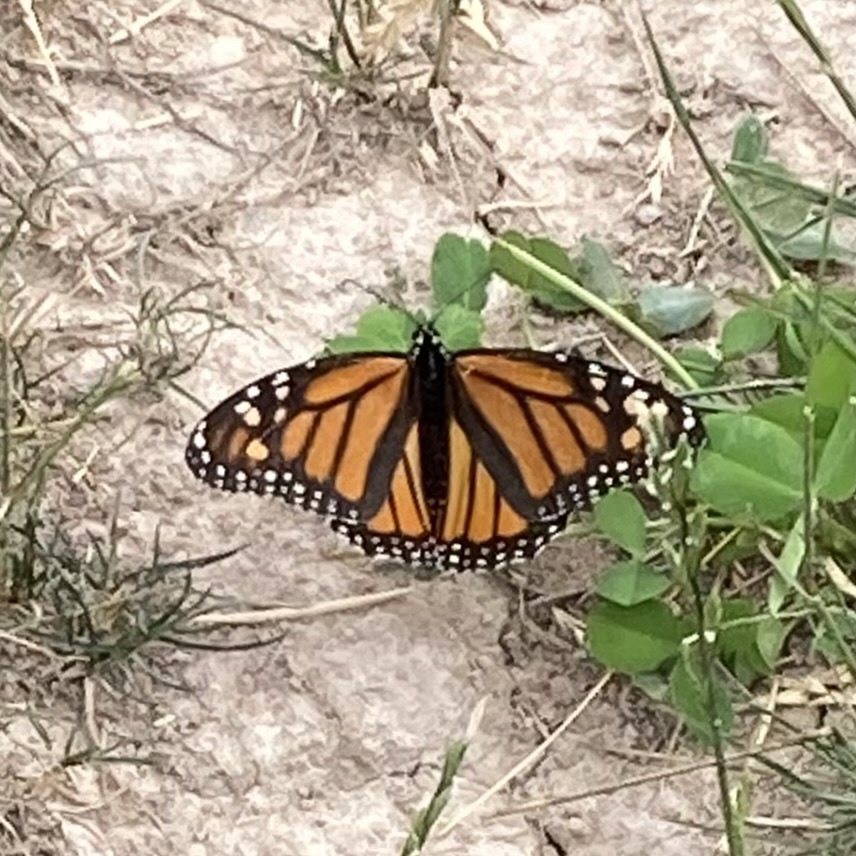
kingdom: Animalia
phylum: Arthropoda
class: Insecta
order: Lepidoptera
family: Nymphalidae
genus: Danaus
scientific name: Danaus plexippus
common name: Monarch
